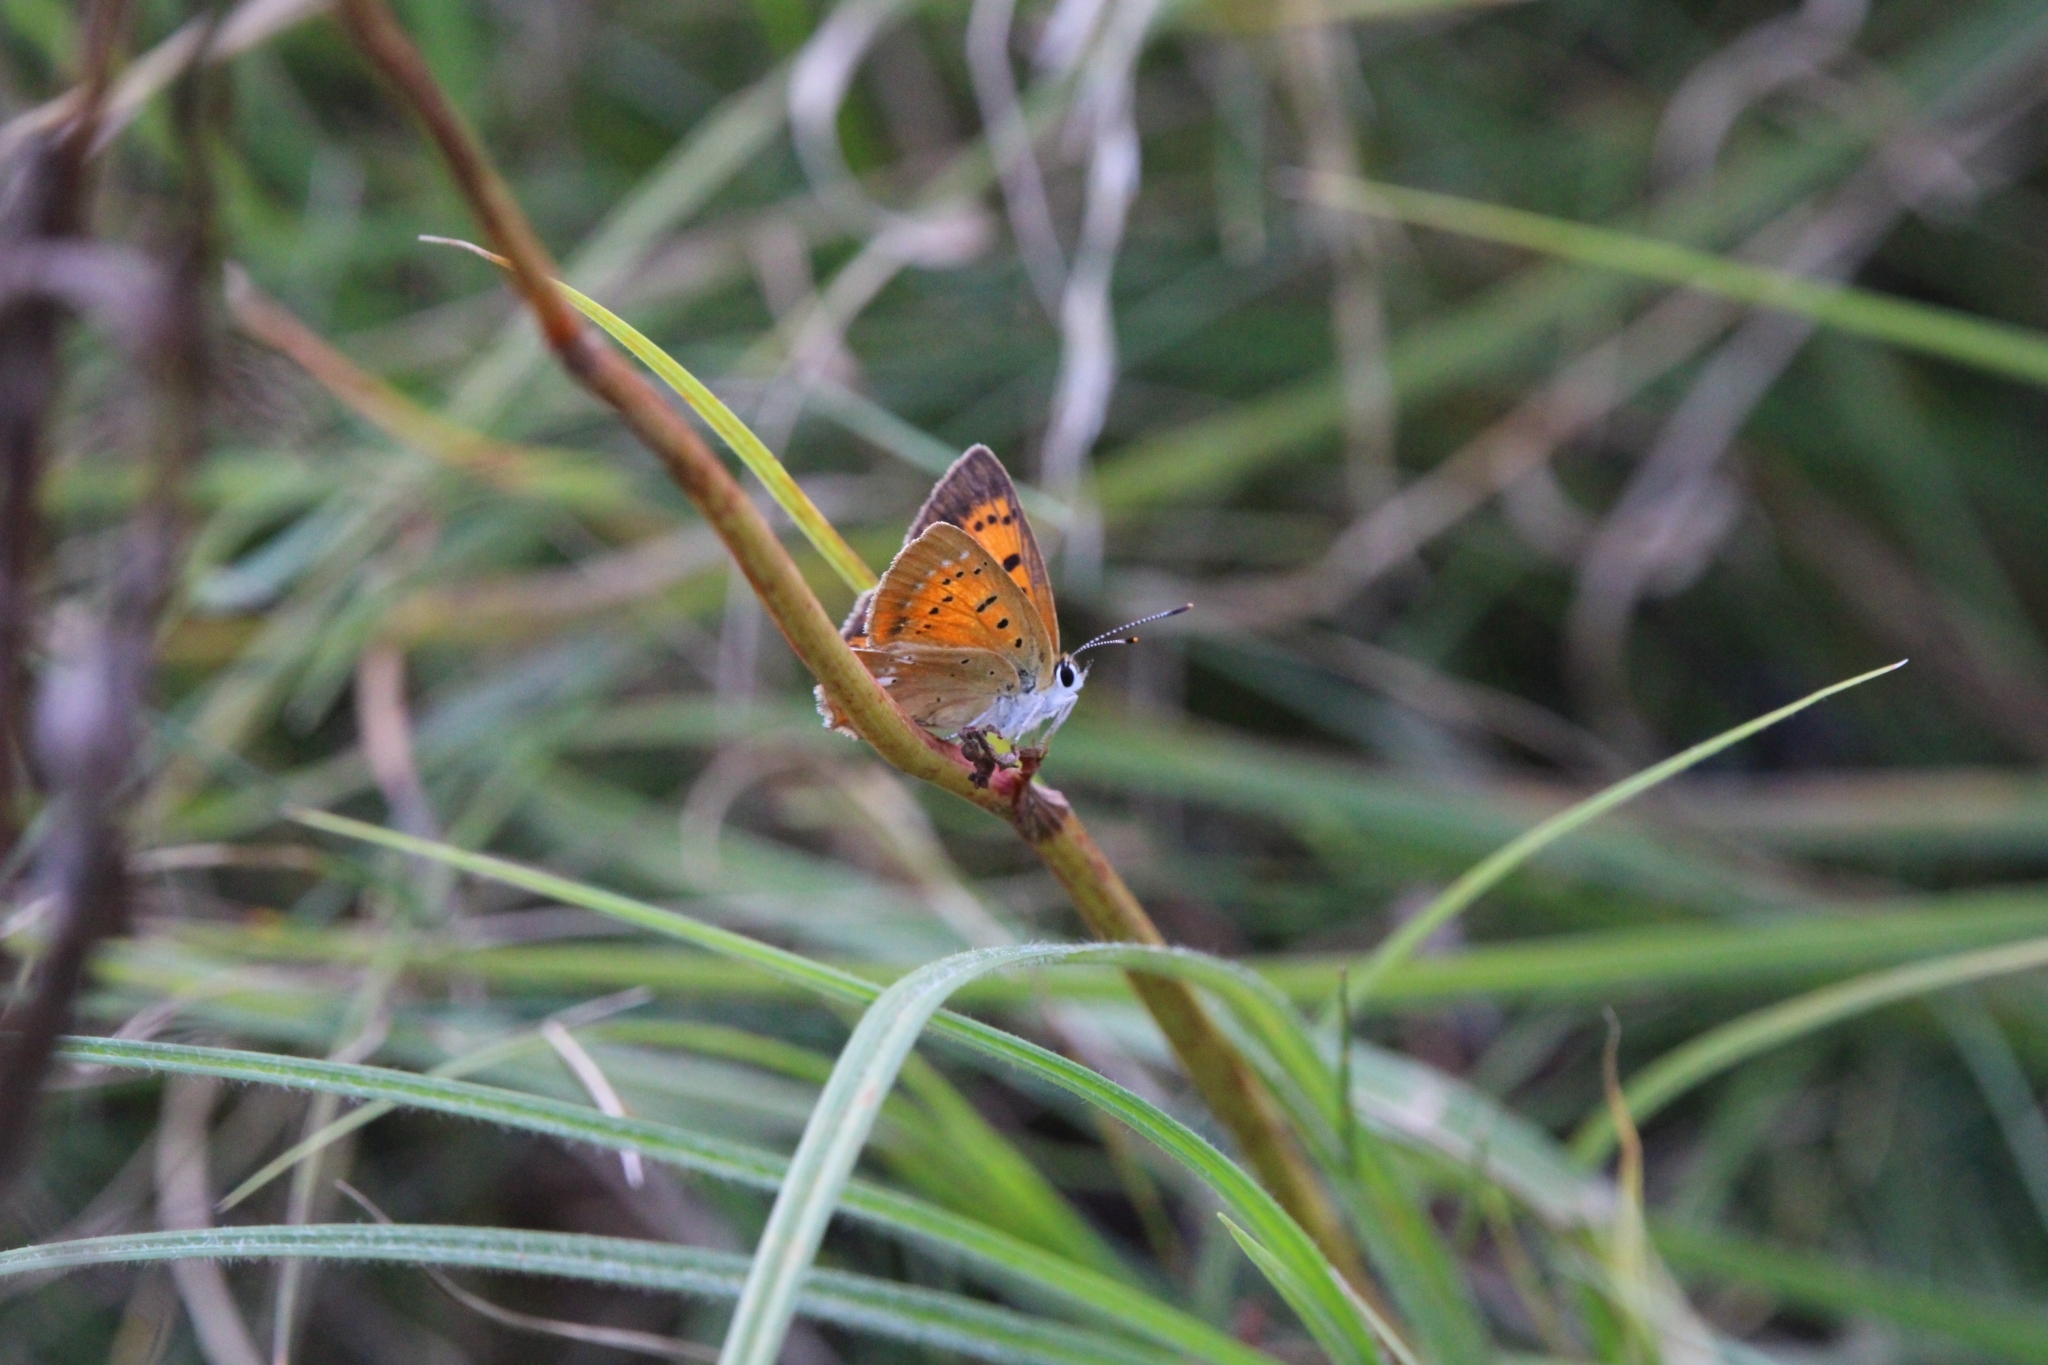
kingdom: Animalia
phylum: Arthropoda
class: Insecta
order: Lepidoptera
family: Lycaenidae
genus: Lycaena
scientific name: Lycaena virgaureae
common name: Scarce copper
